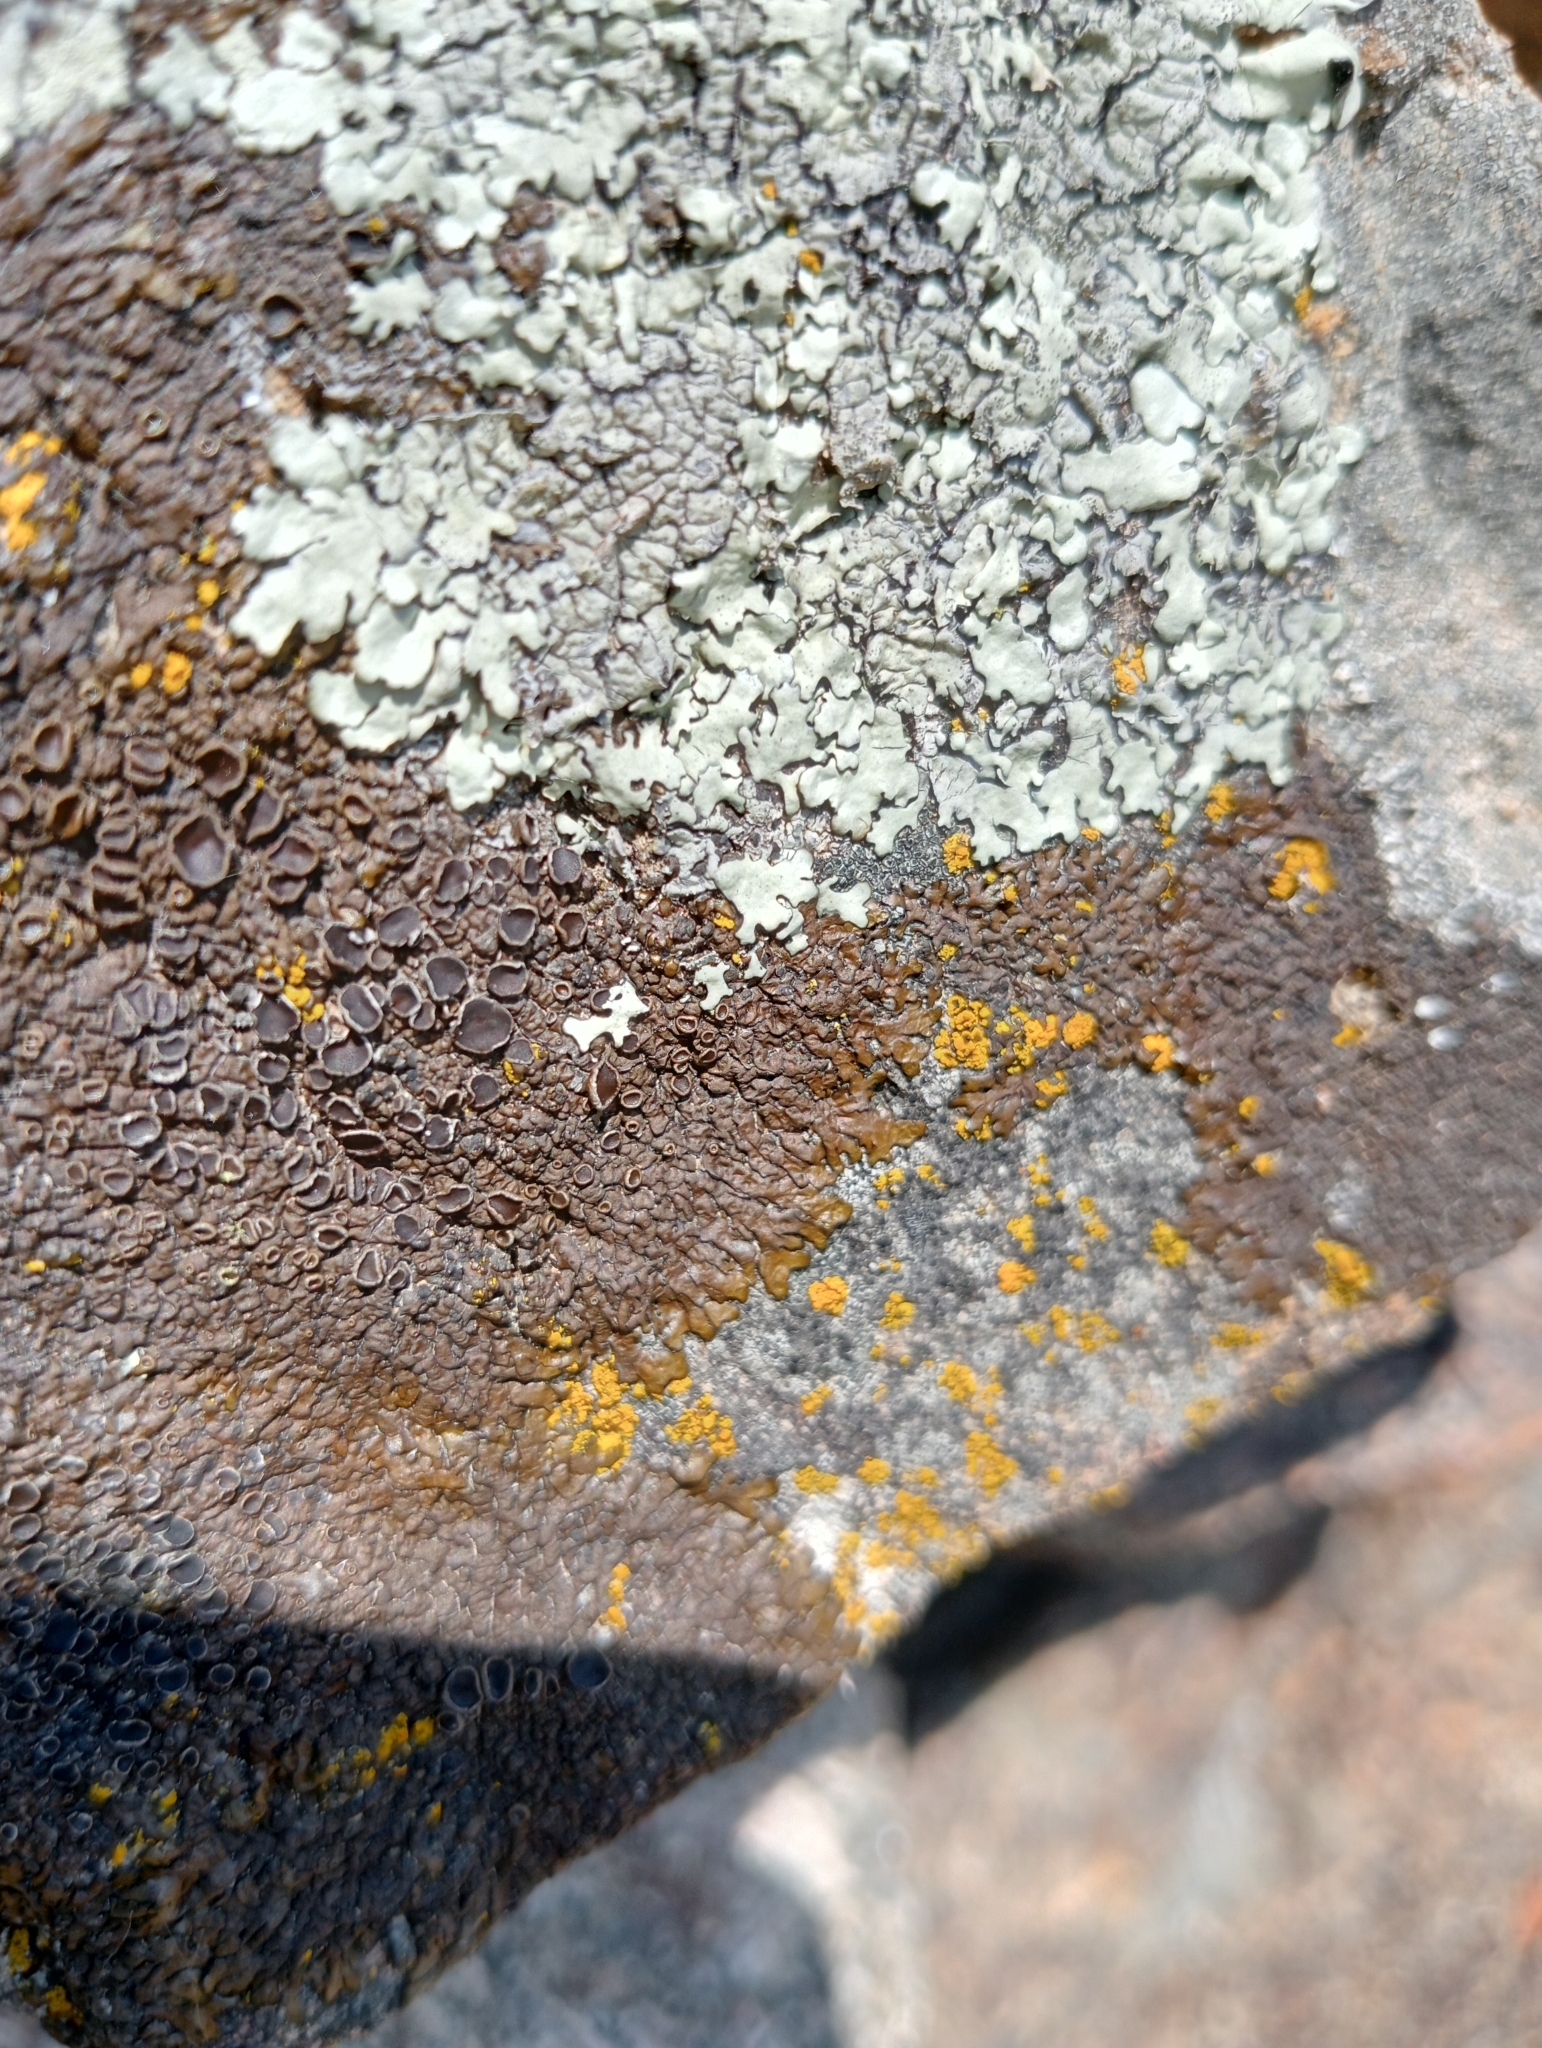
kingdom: Fungi
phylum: Ascomycota
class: Lecanoromycetes
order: Lecanorales
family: Parmeliaceae
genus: Xanthoparmelia
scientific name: Xanthoparmelia pulla
